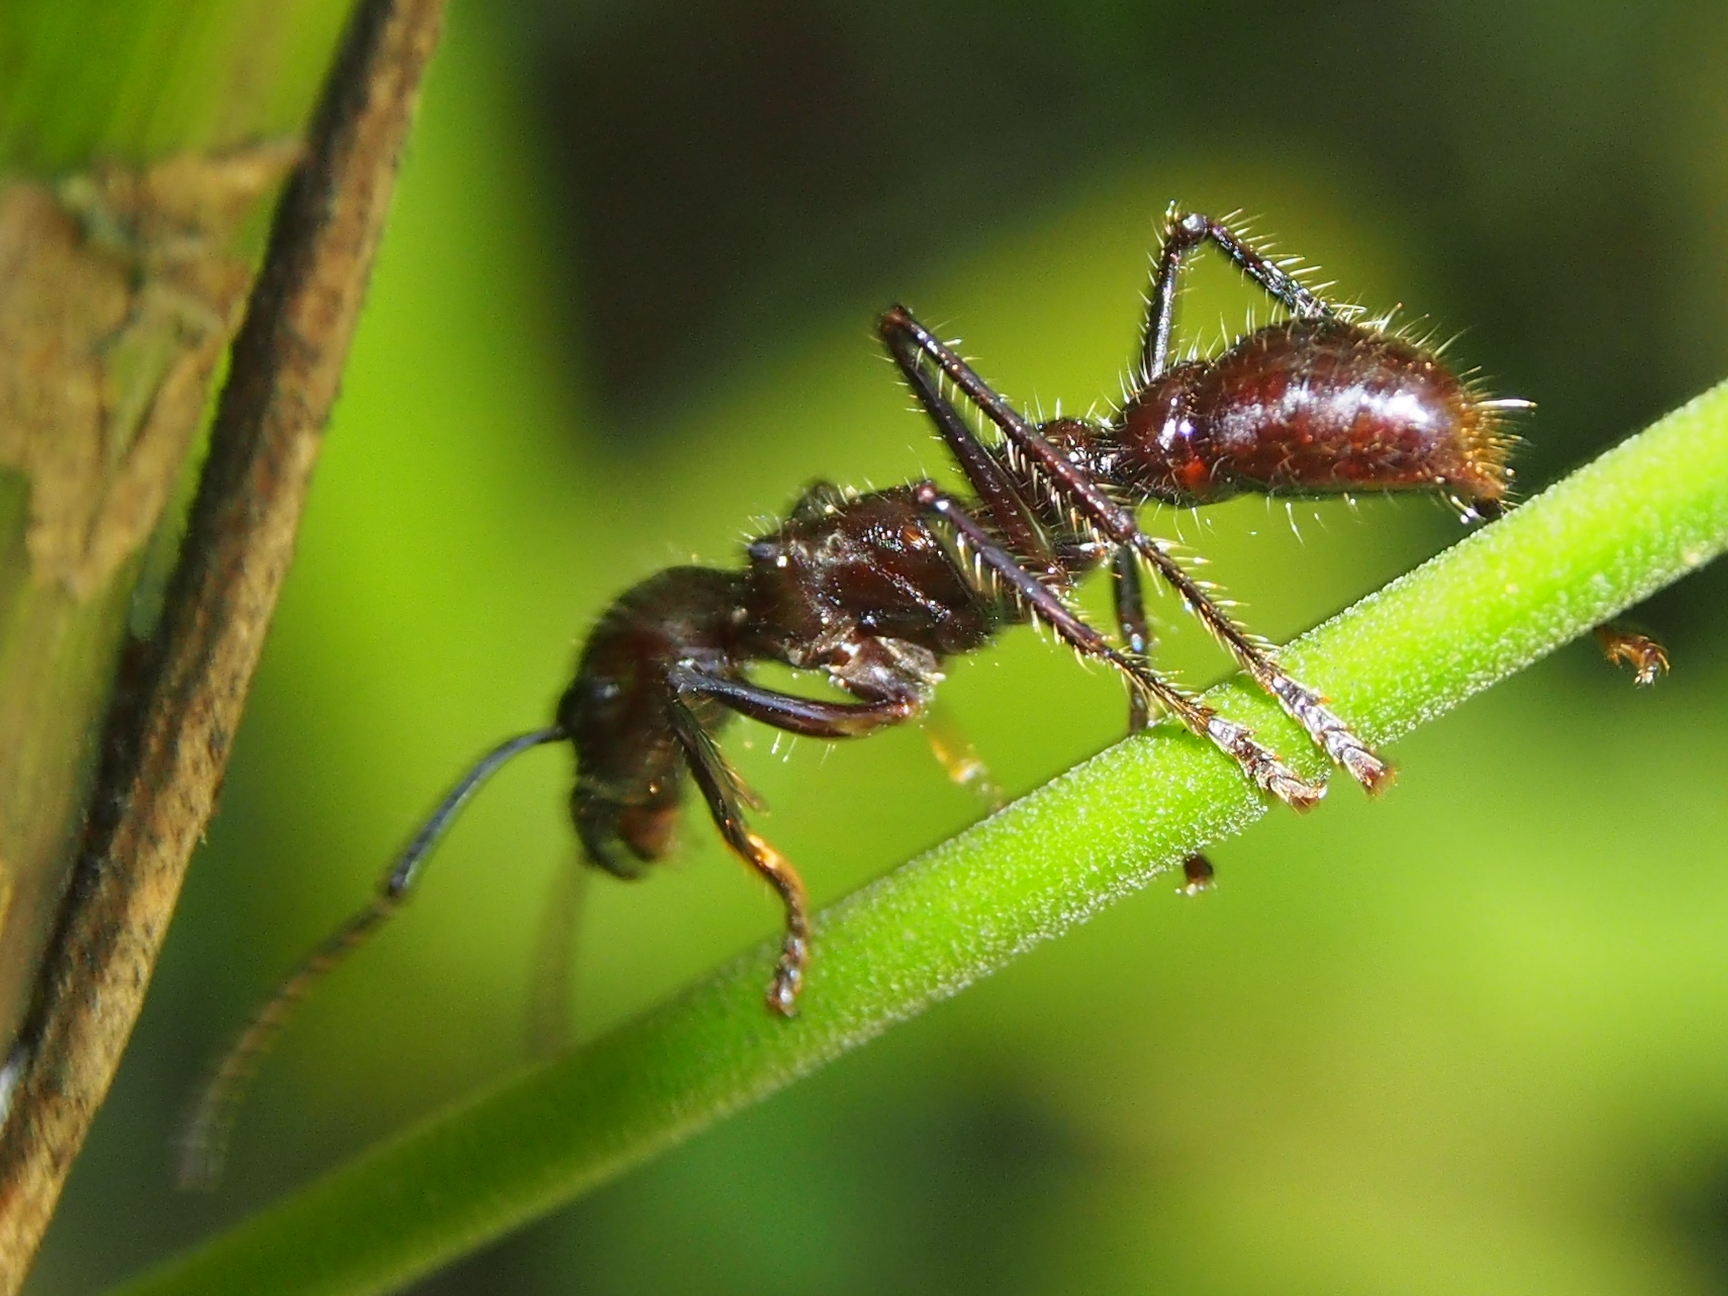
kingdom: Animalia
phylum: Arthropoda
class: Insecta
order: Hymenoptera
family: Formicidae
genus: Paraponera
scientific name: Paraponera clavata
